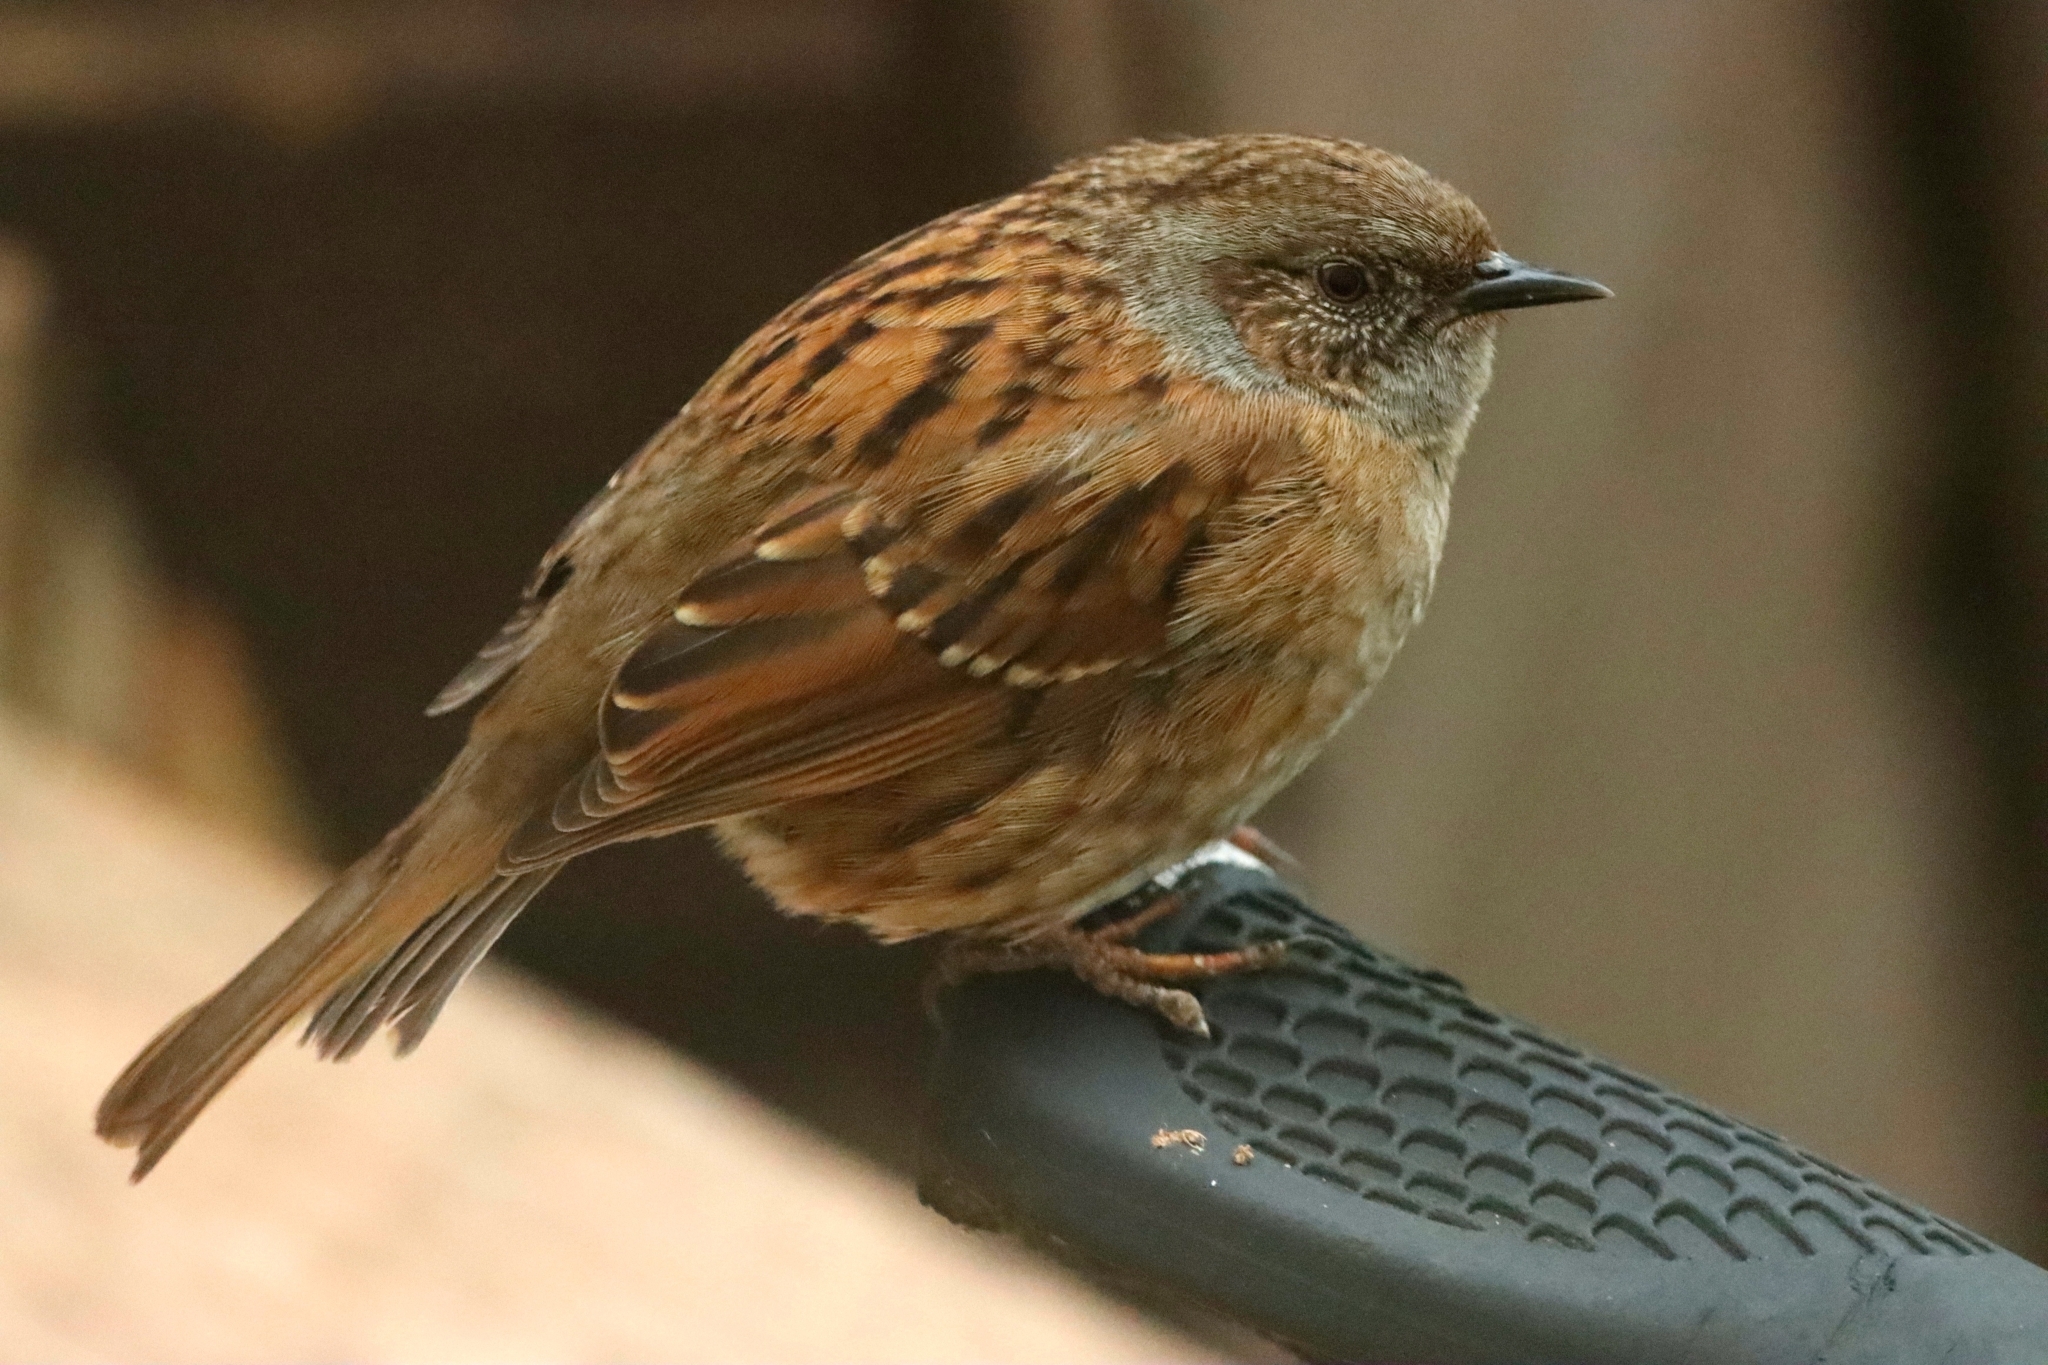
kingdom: Animalia
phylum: Chordata
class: Aves
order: Passeriformes
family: Prunellidae
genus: Prunella
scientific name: Prunella modularis
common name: Dunnock
